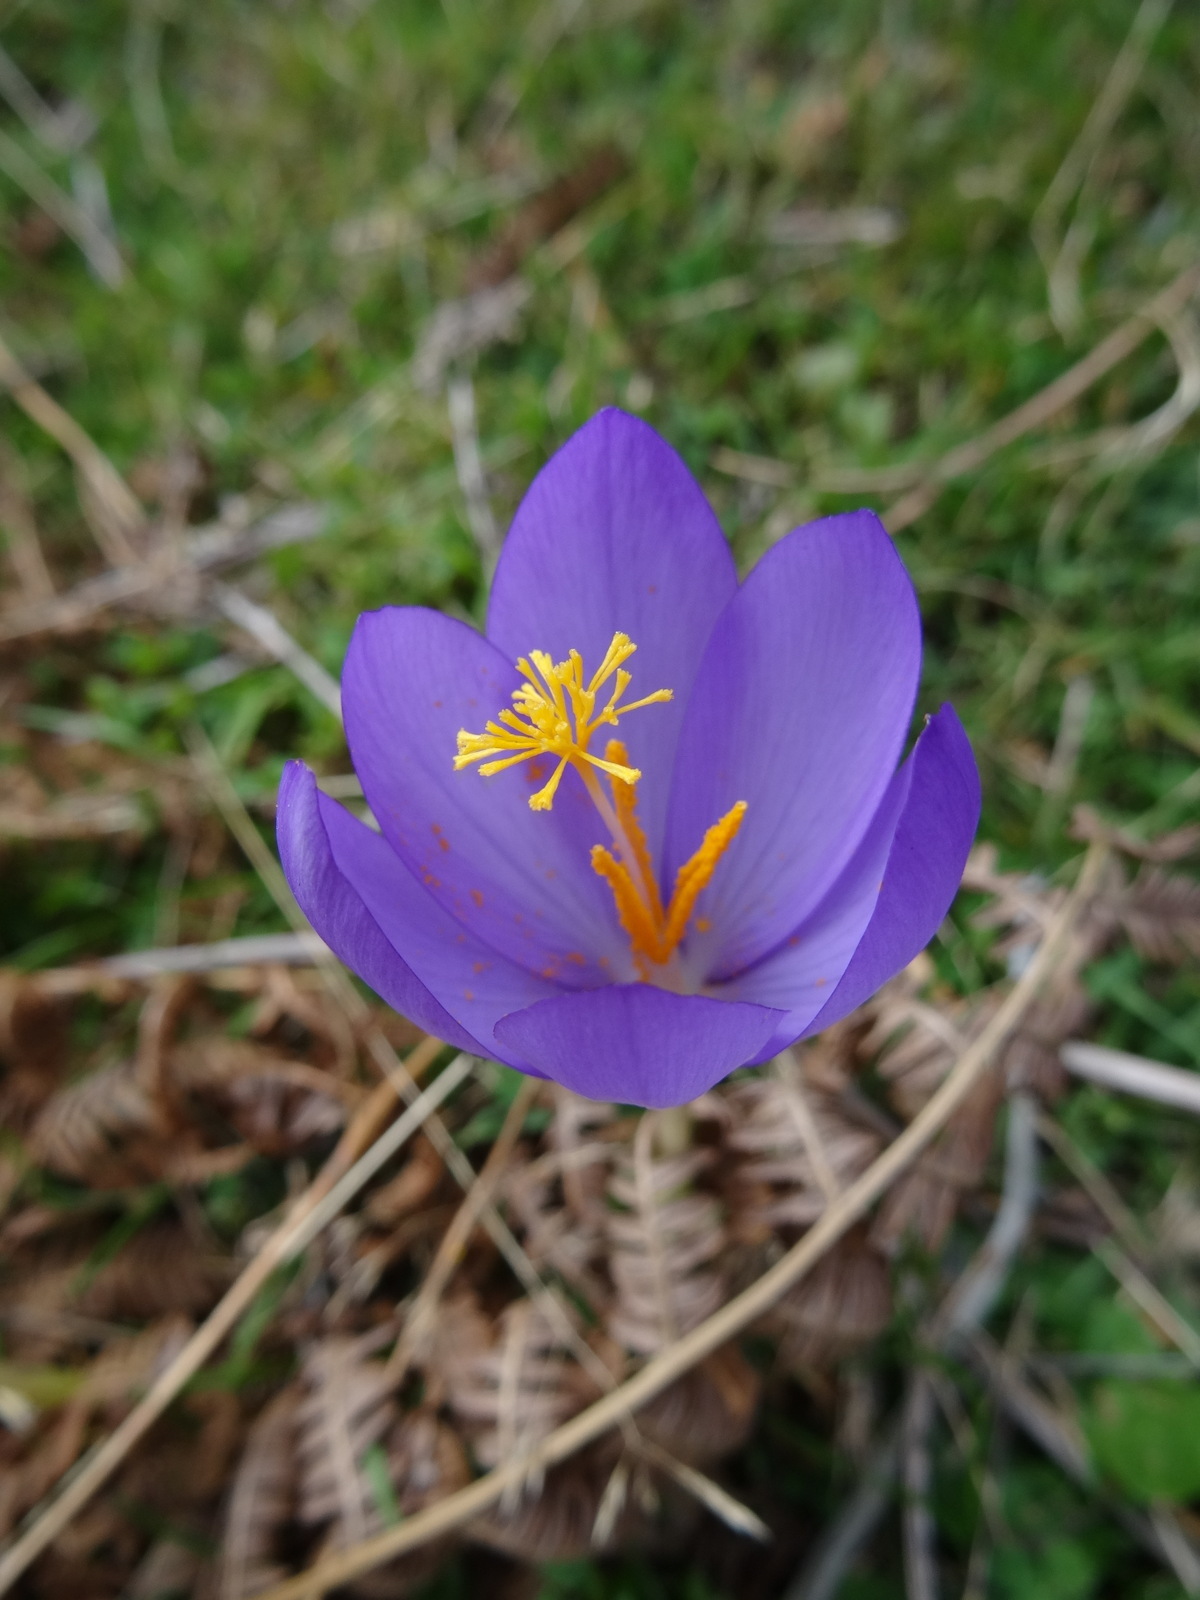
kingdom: Plantae
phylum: Tracheophyta
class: Liliopsida
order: Asparagales
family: Iridaceae
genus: Crocus
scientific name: Crocus nudiflorus
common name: Autumn crocus
